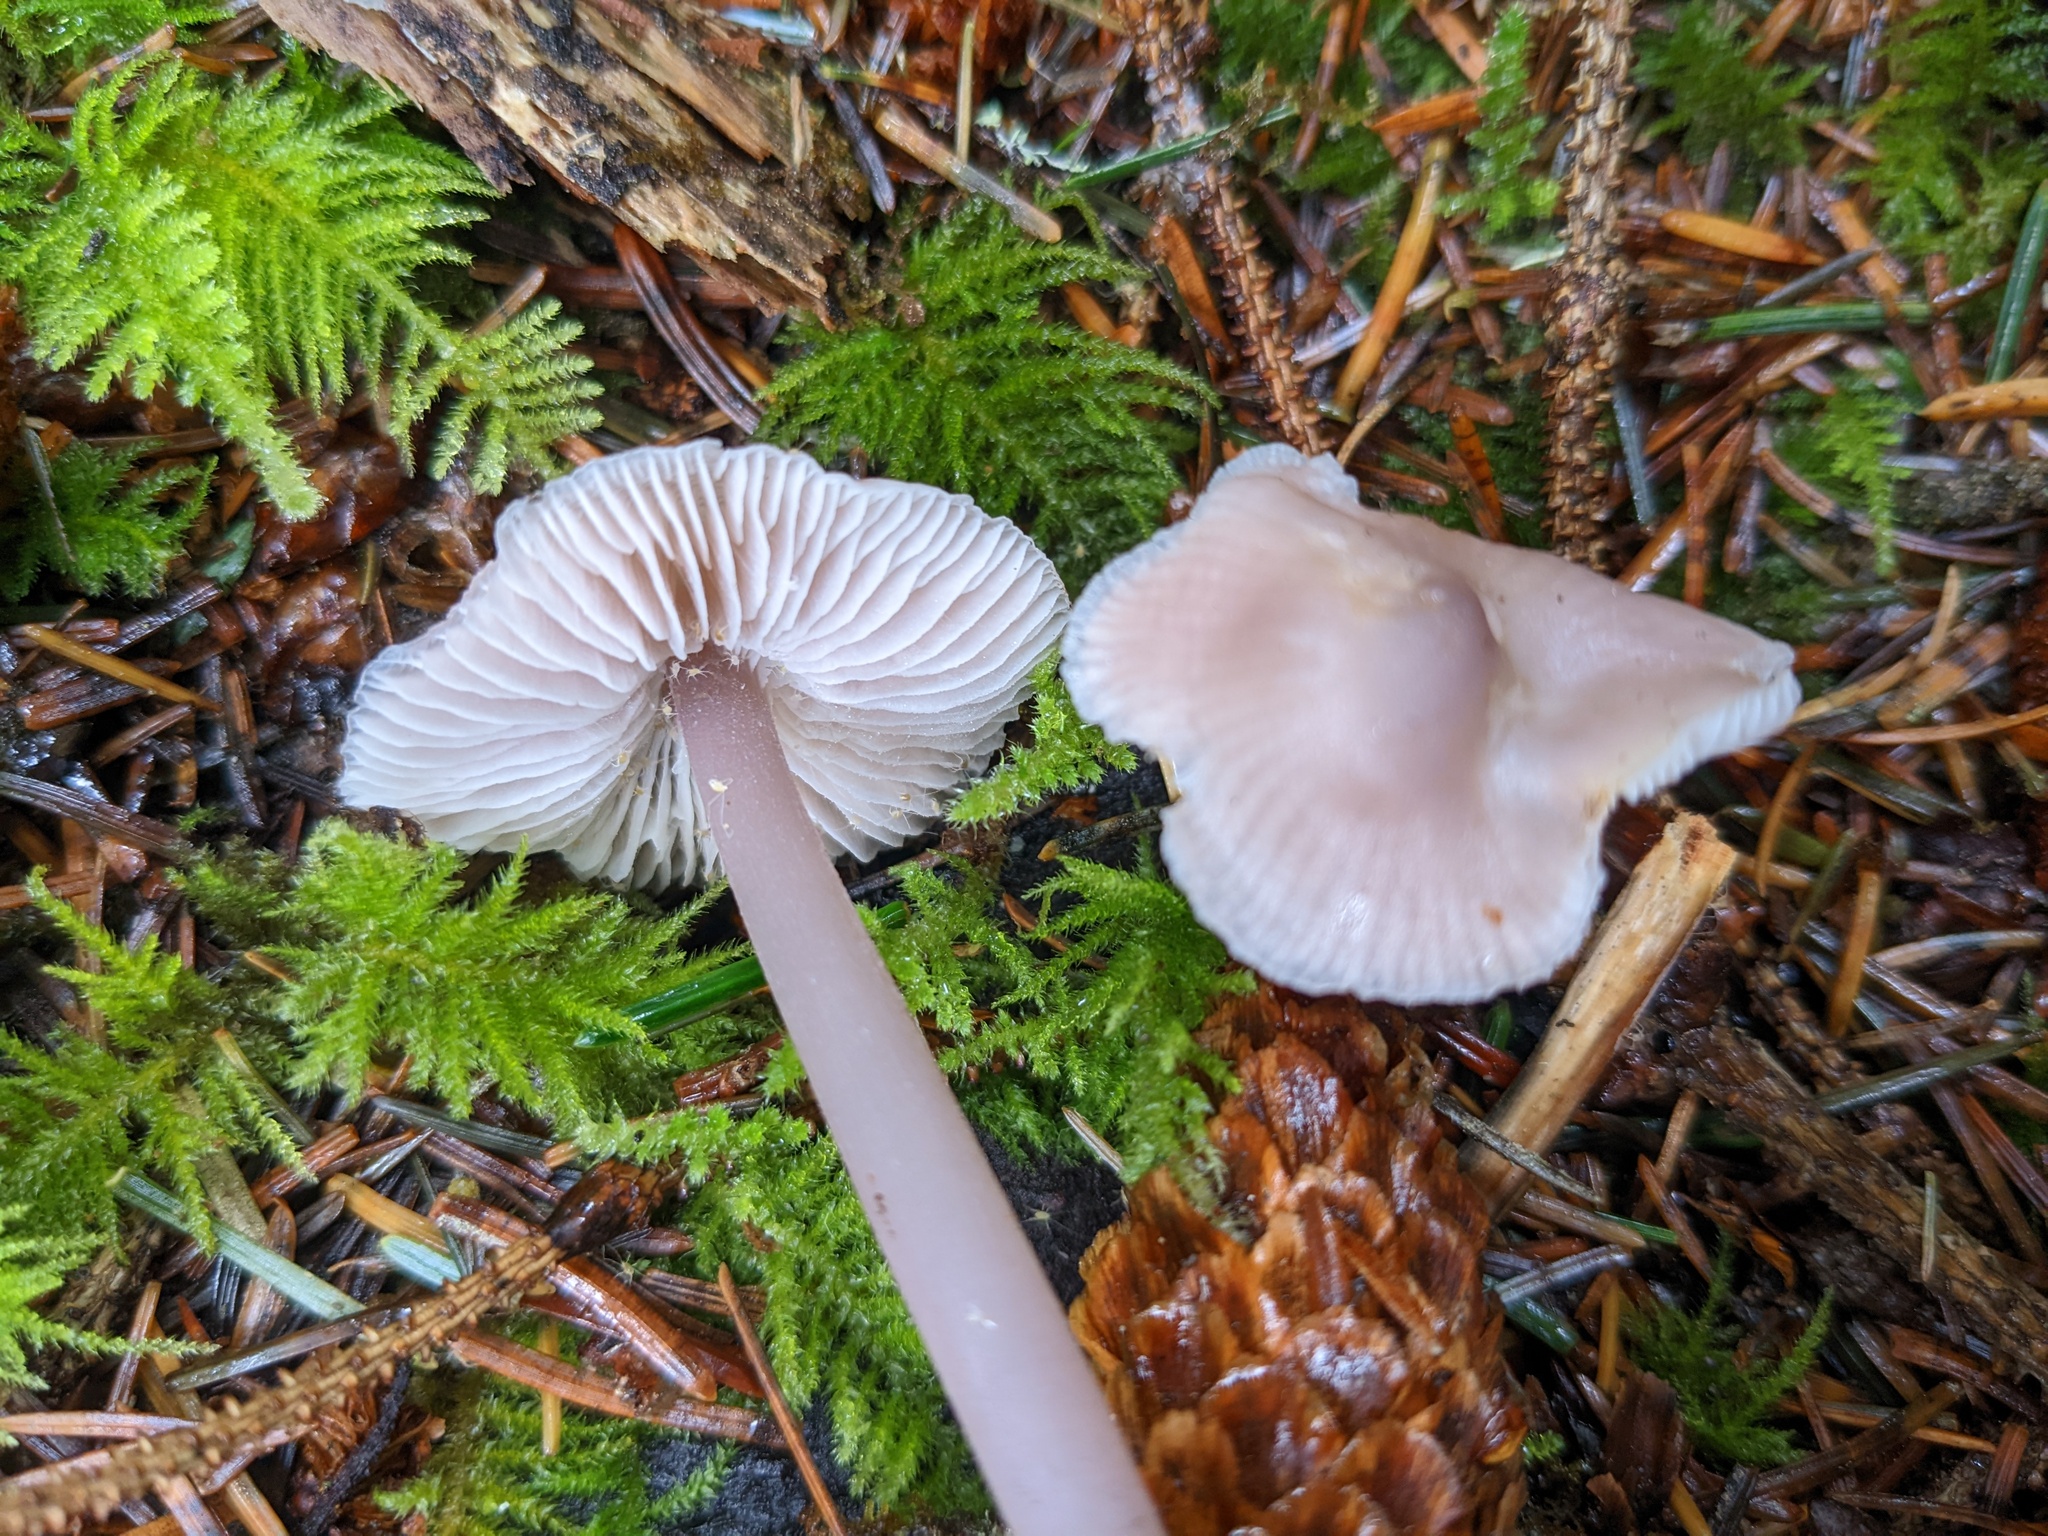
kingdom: Fungi
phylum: Basidiomycota
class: Agaricomycetes
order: Agaricales
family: Mycenaceae
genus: Mycena
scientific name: Mycena pura
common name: Lilac bonnet
